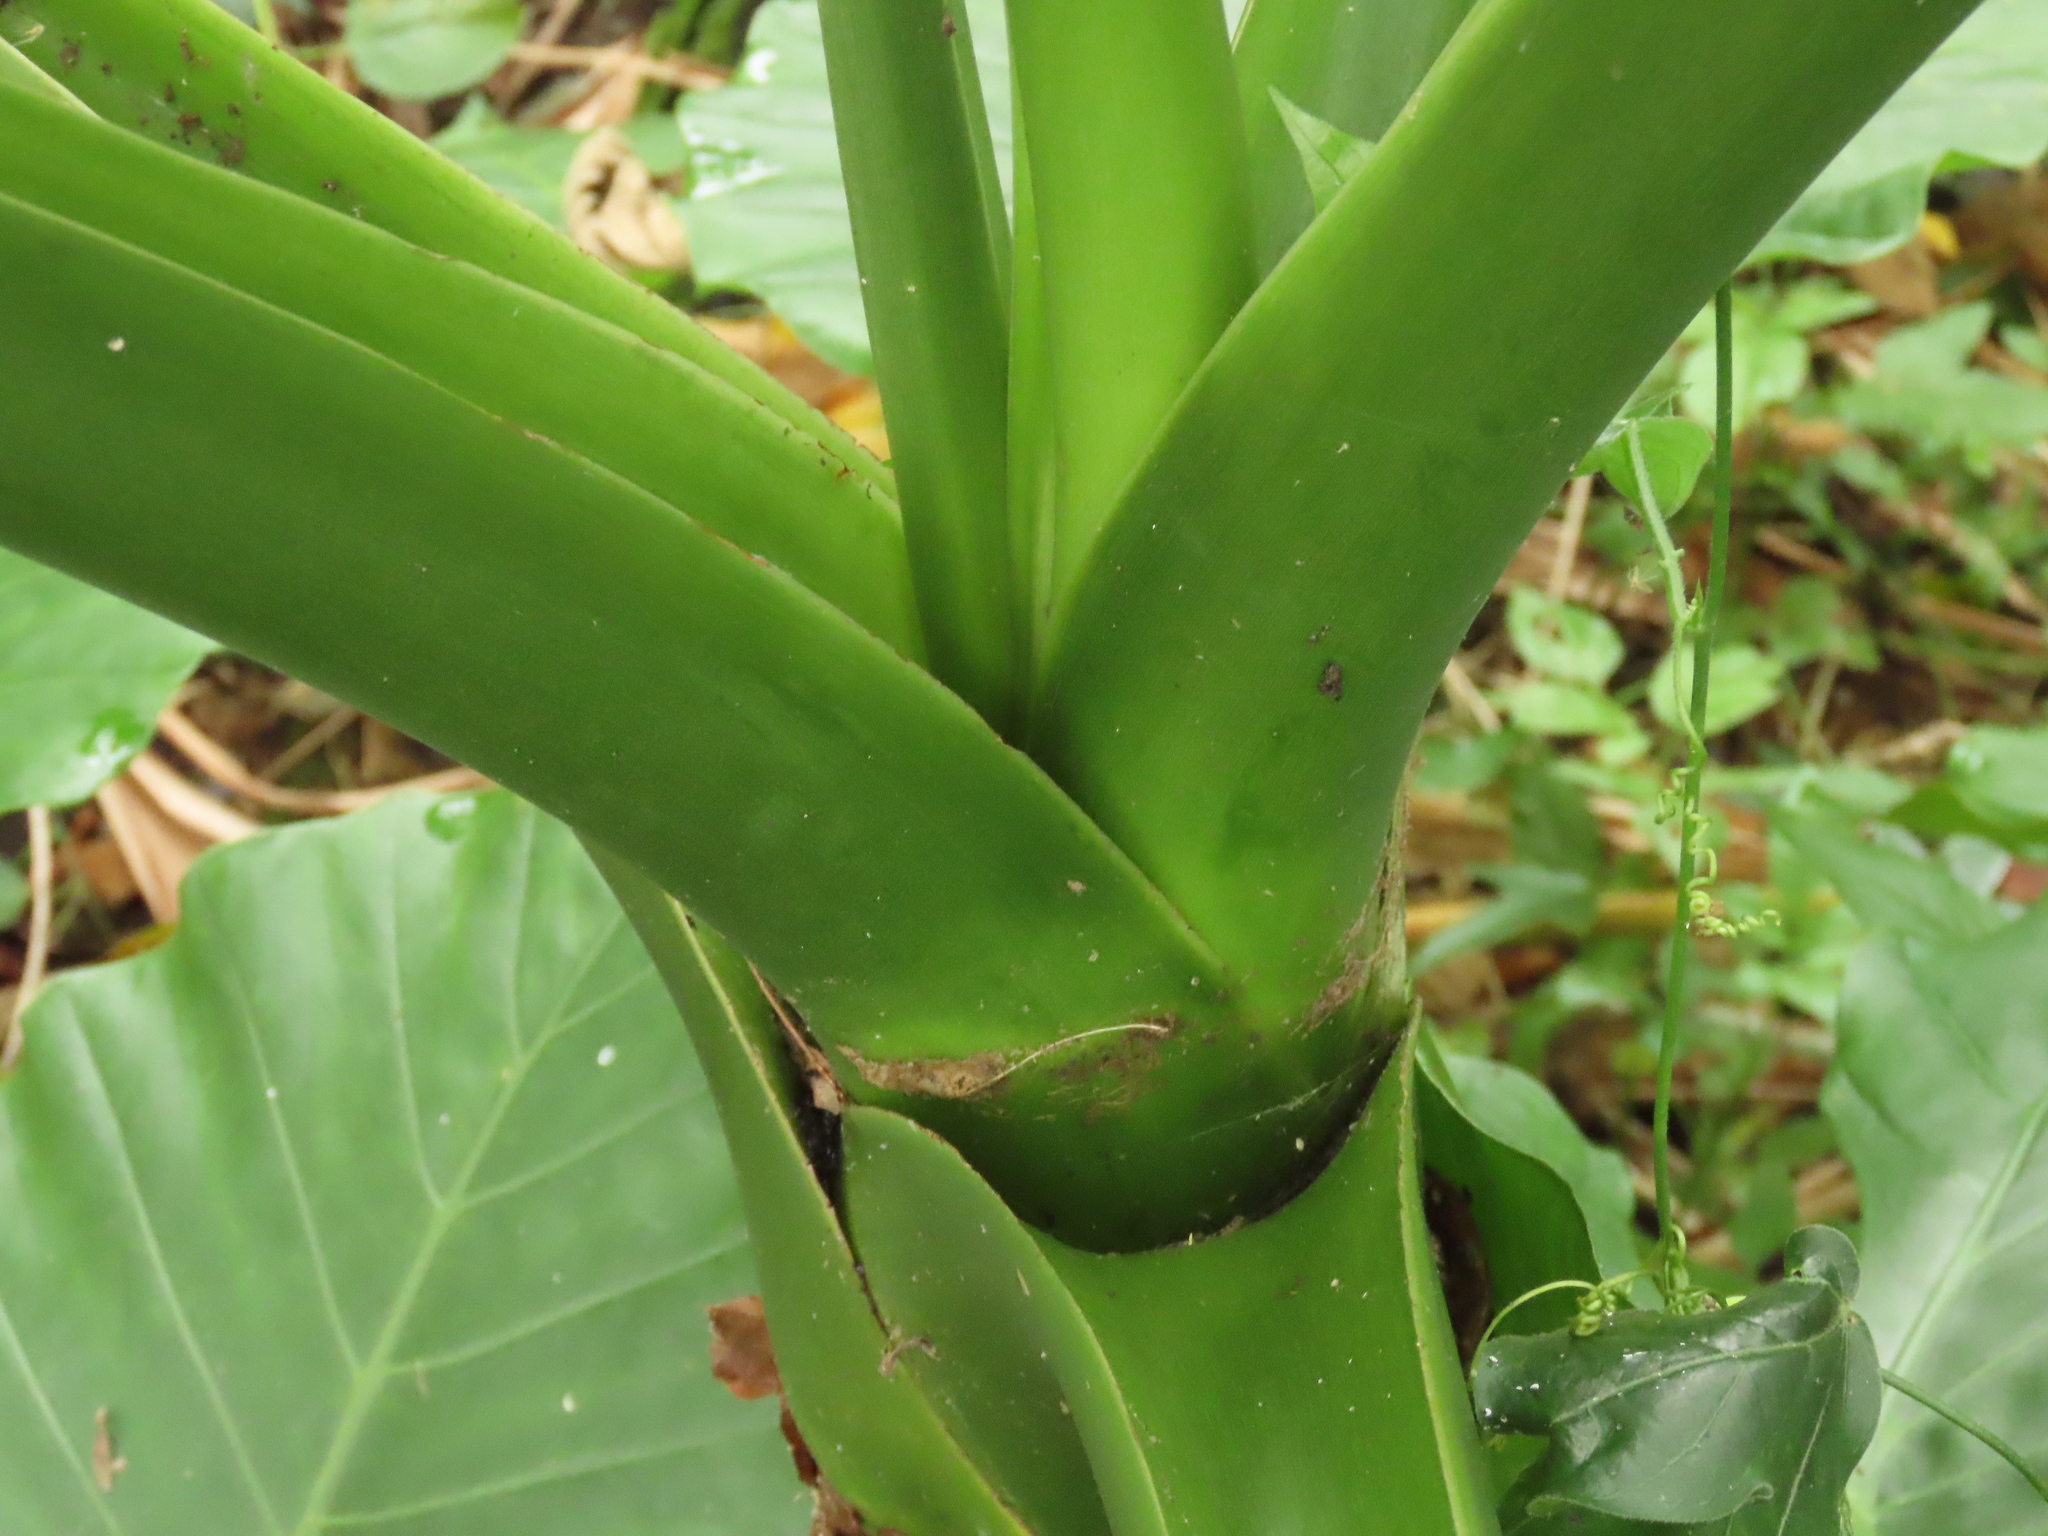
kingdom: Plantae
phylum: Tracheophyta
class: Liliopsida
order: Alismatales
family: Araceae
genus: Alocasia
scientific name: Alocasia odora
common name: Asian taro
